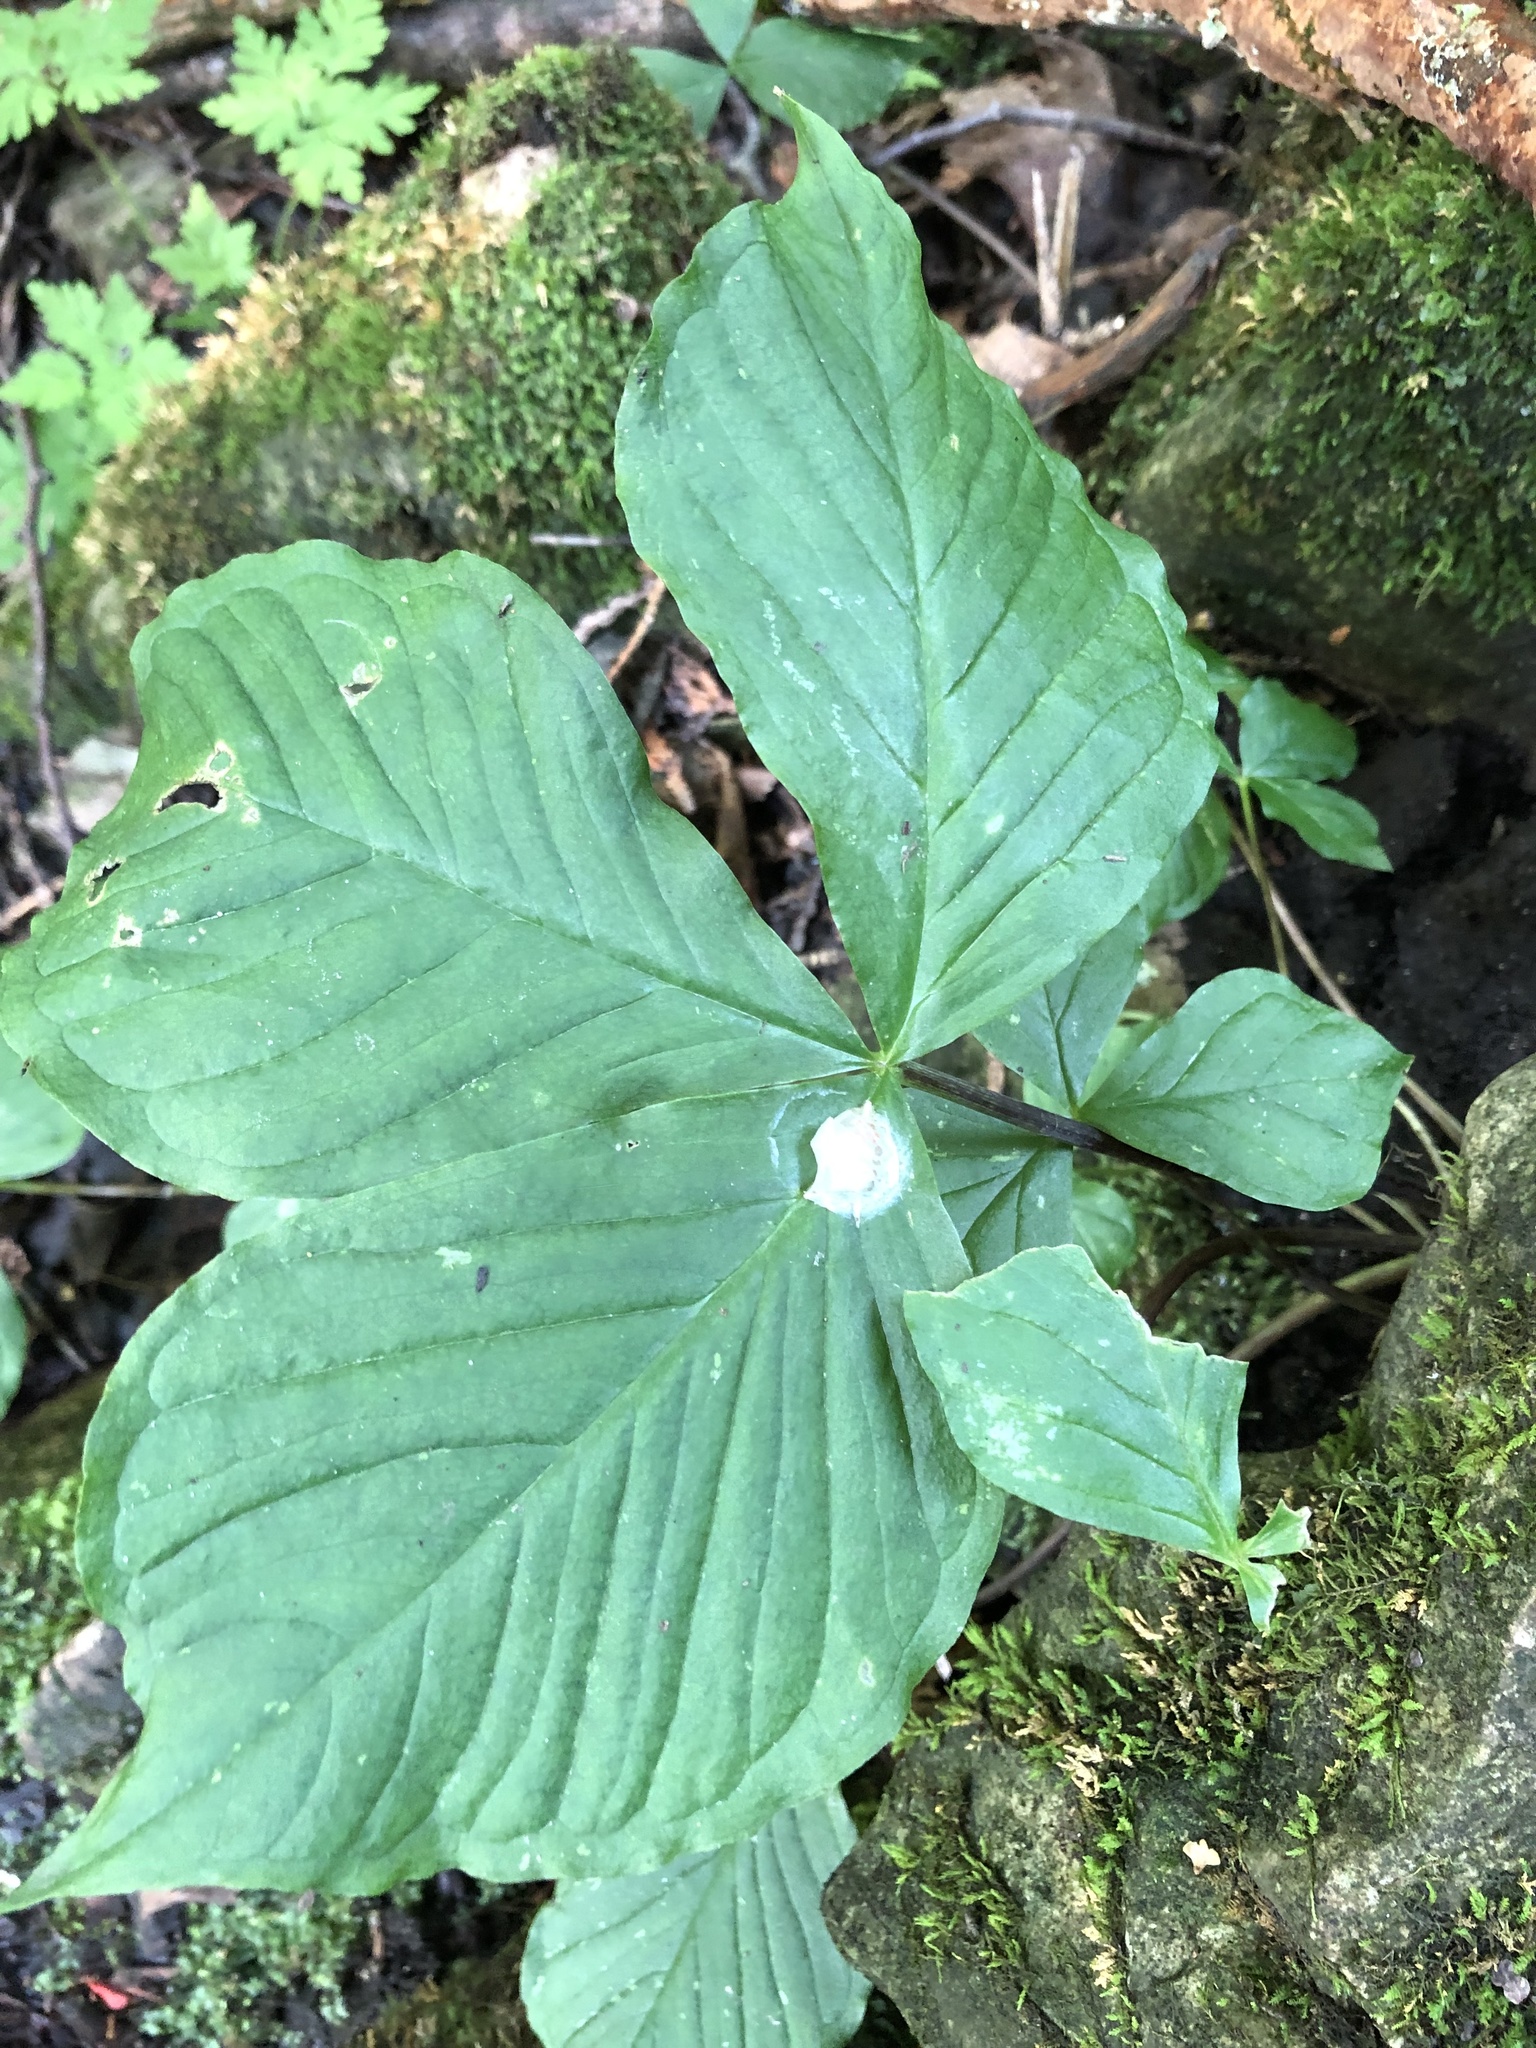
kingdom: Plantae
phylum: Tracheophyta
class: Liliopsida
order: Alismatales
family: Araceae
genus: Arisaema
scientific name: Arisaema triphyllum
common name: Jack-in-the-pulpit
